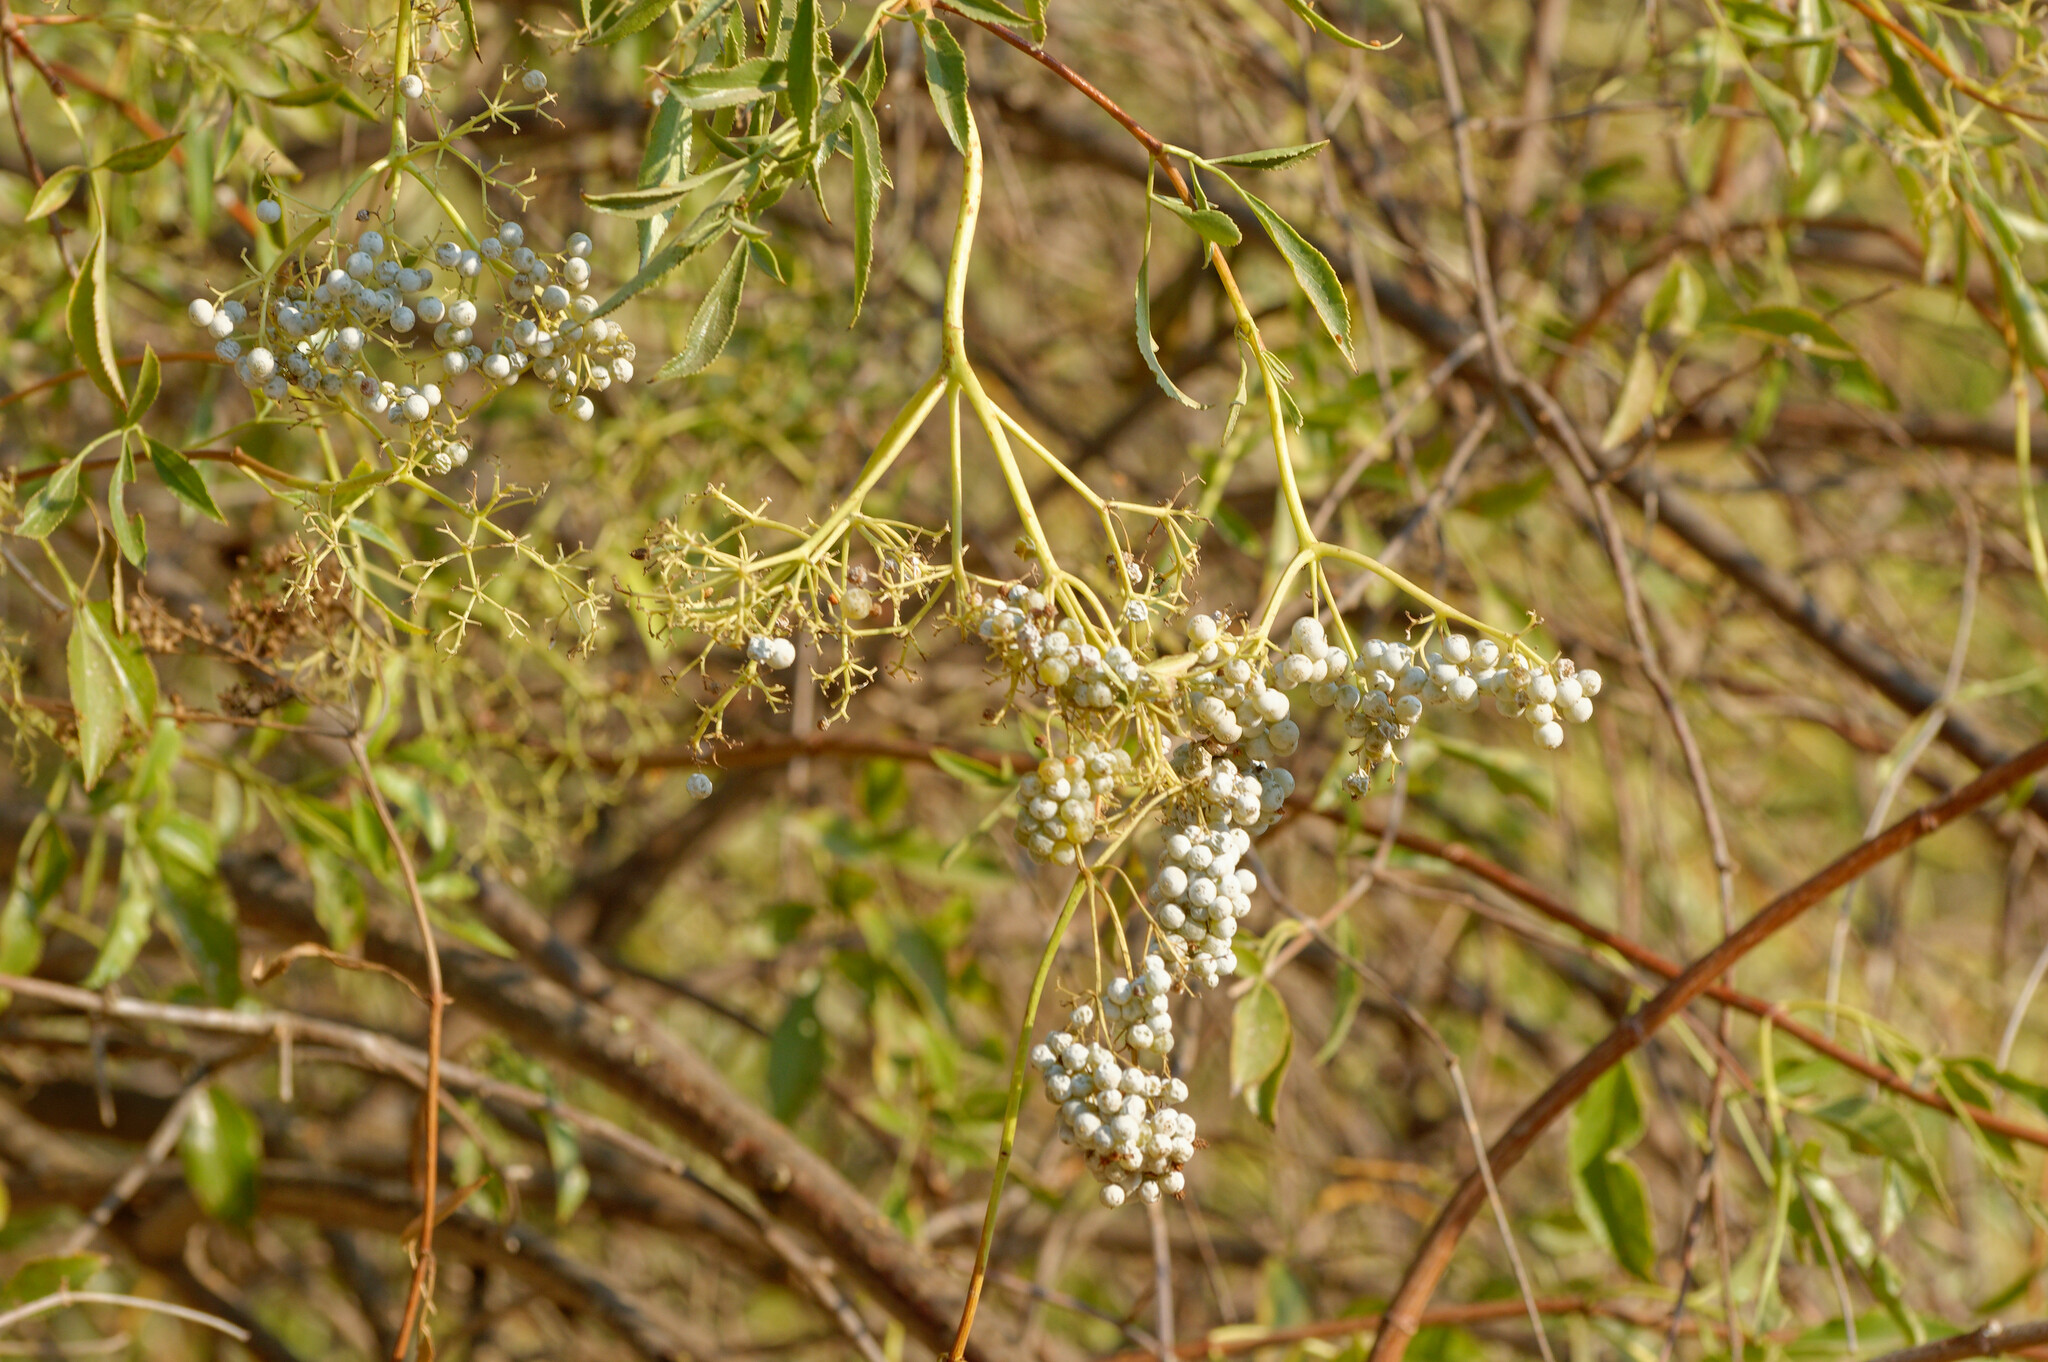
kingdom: Plantae
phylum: Tracheophyta
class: Magnoliopsida
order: Dipsacales
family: Viburnaceae
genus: Sambucus
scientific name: Sambucus cerulea
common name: Blue elder
